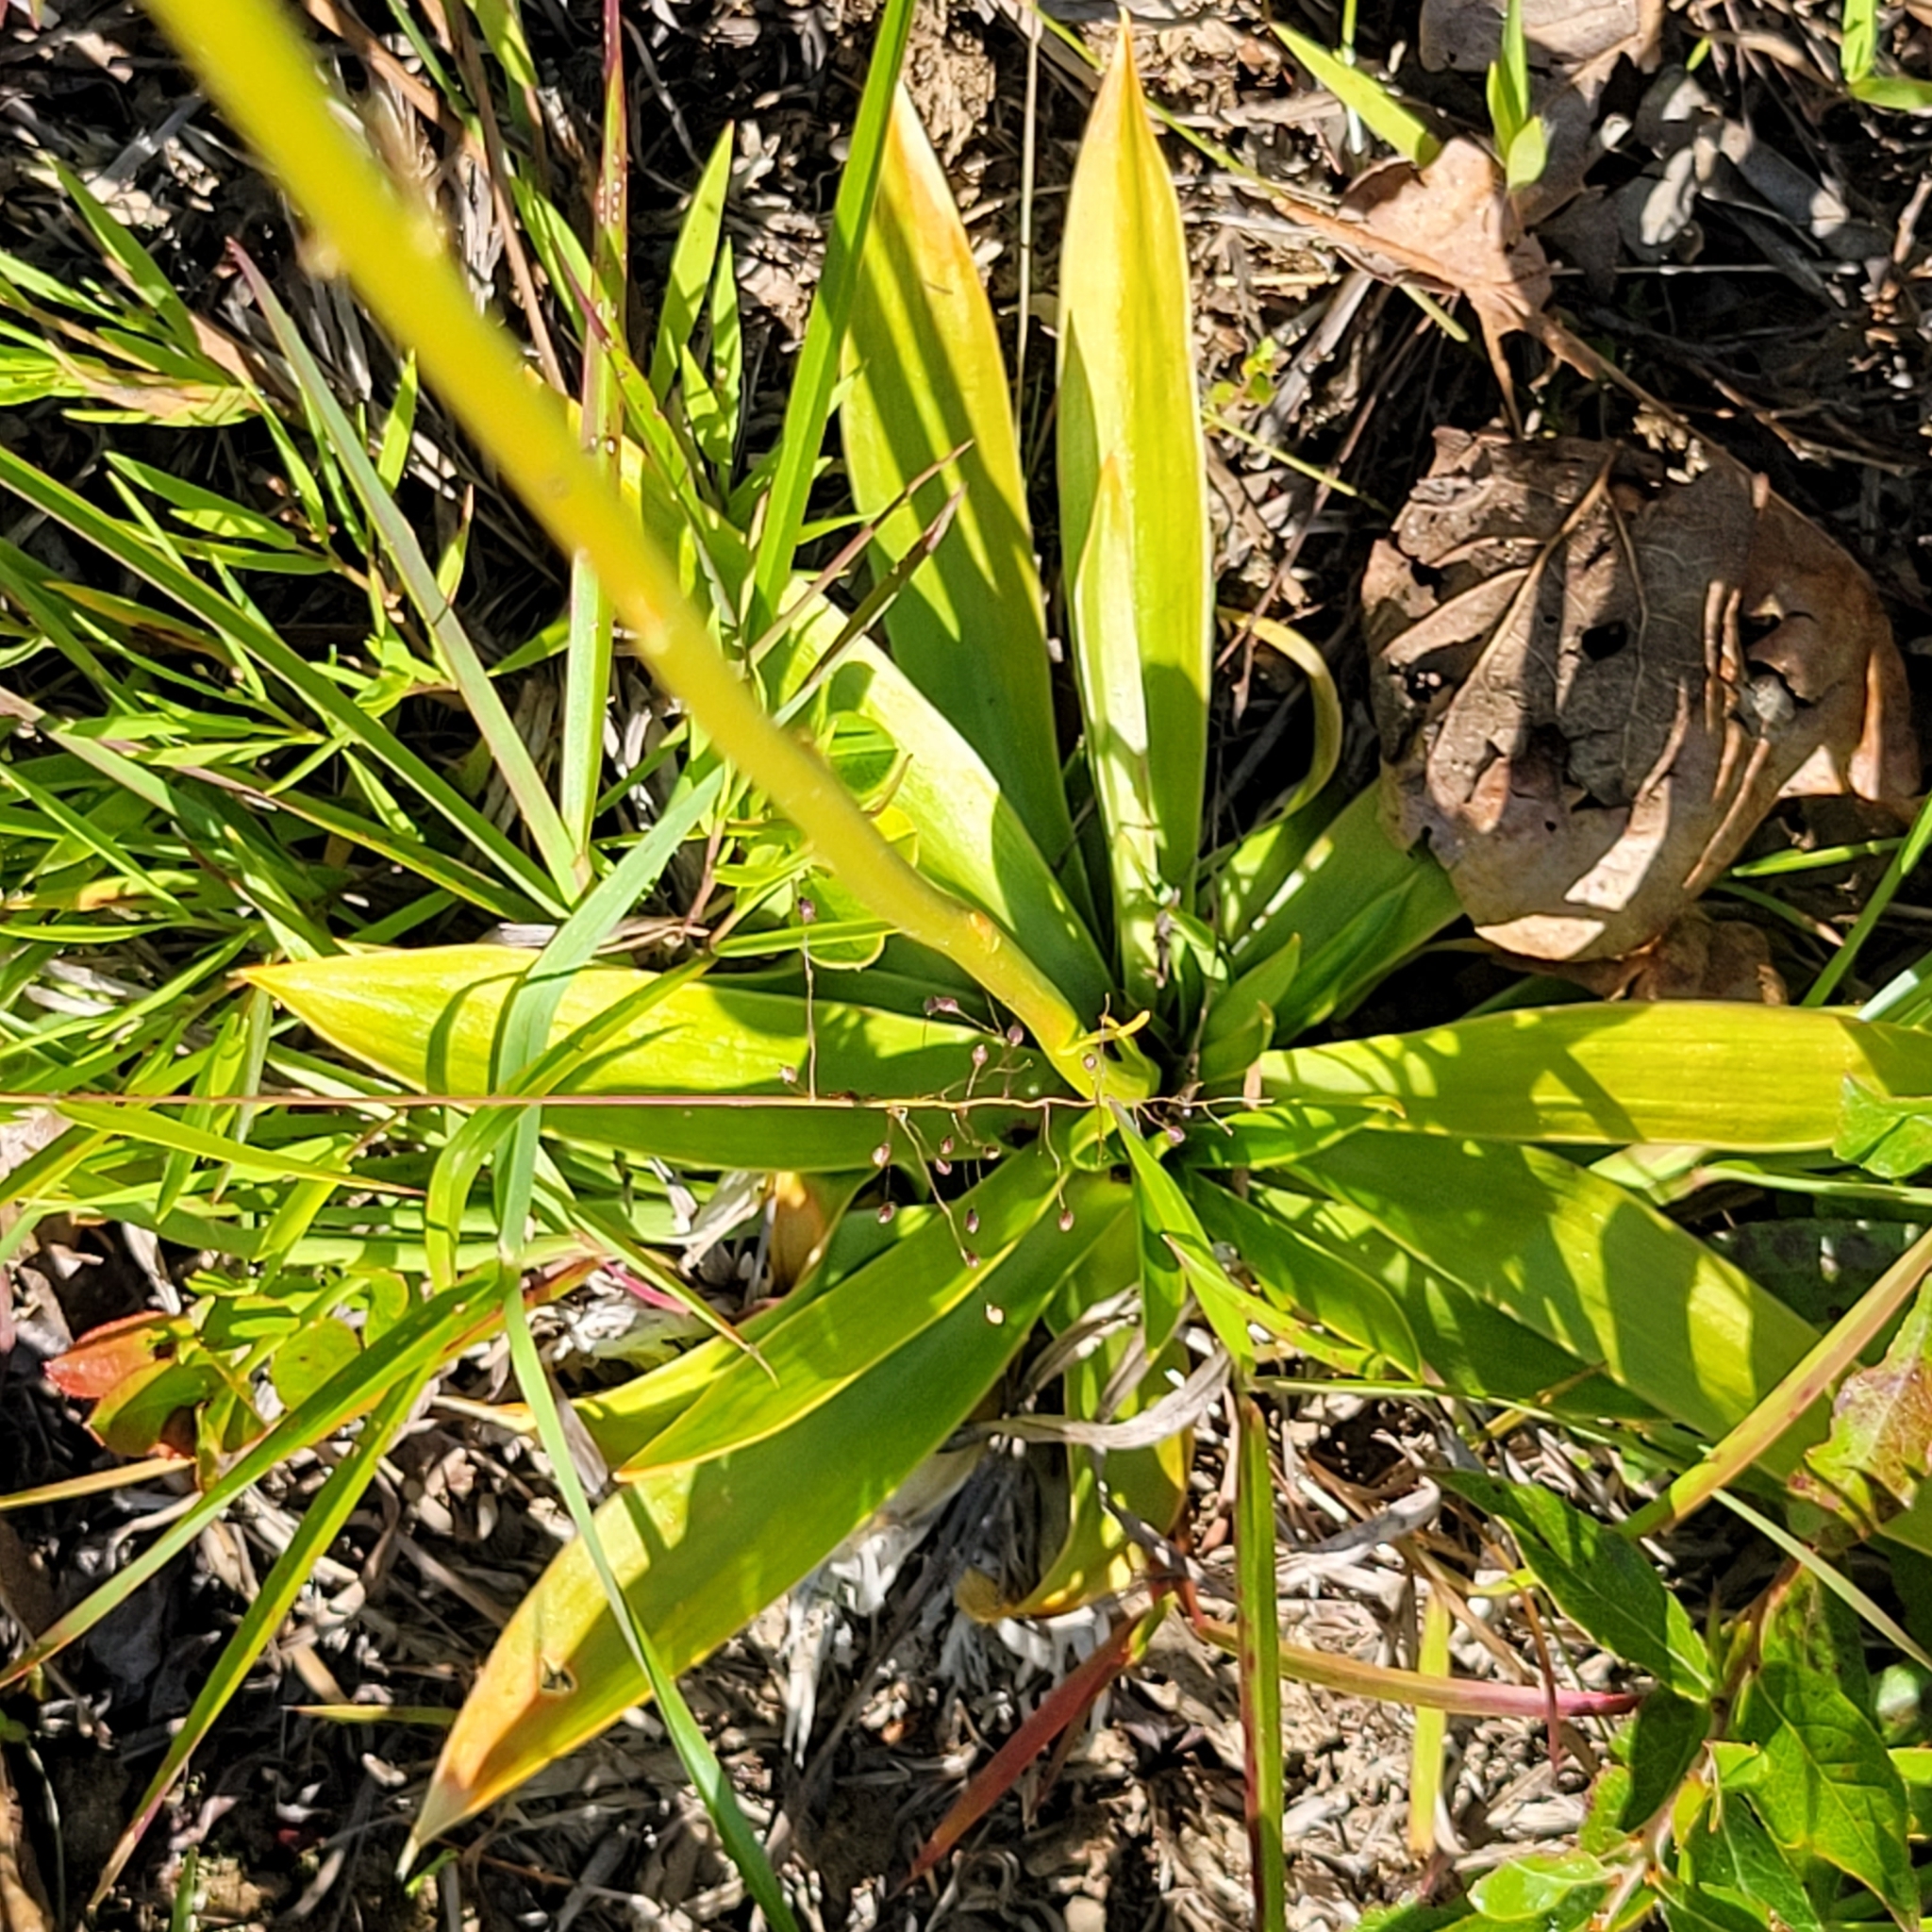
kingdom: Plantae
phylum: Tracheophyta
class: Liliopsida
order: Dioscoreales
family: Nartheciaceae
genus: Aletris
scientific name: Aletris farinosa
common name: Colicroot
